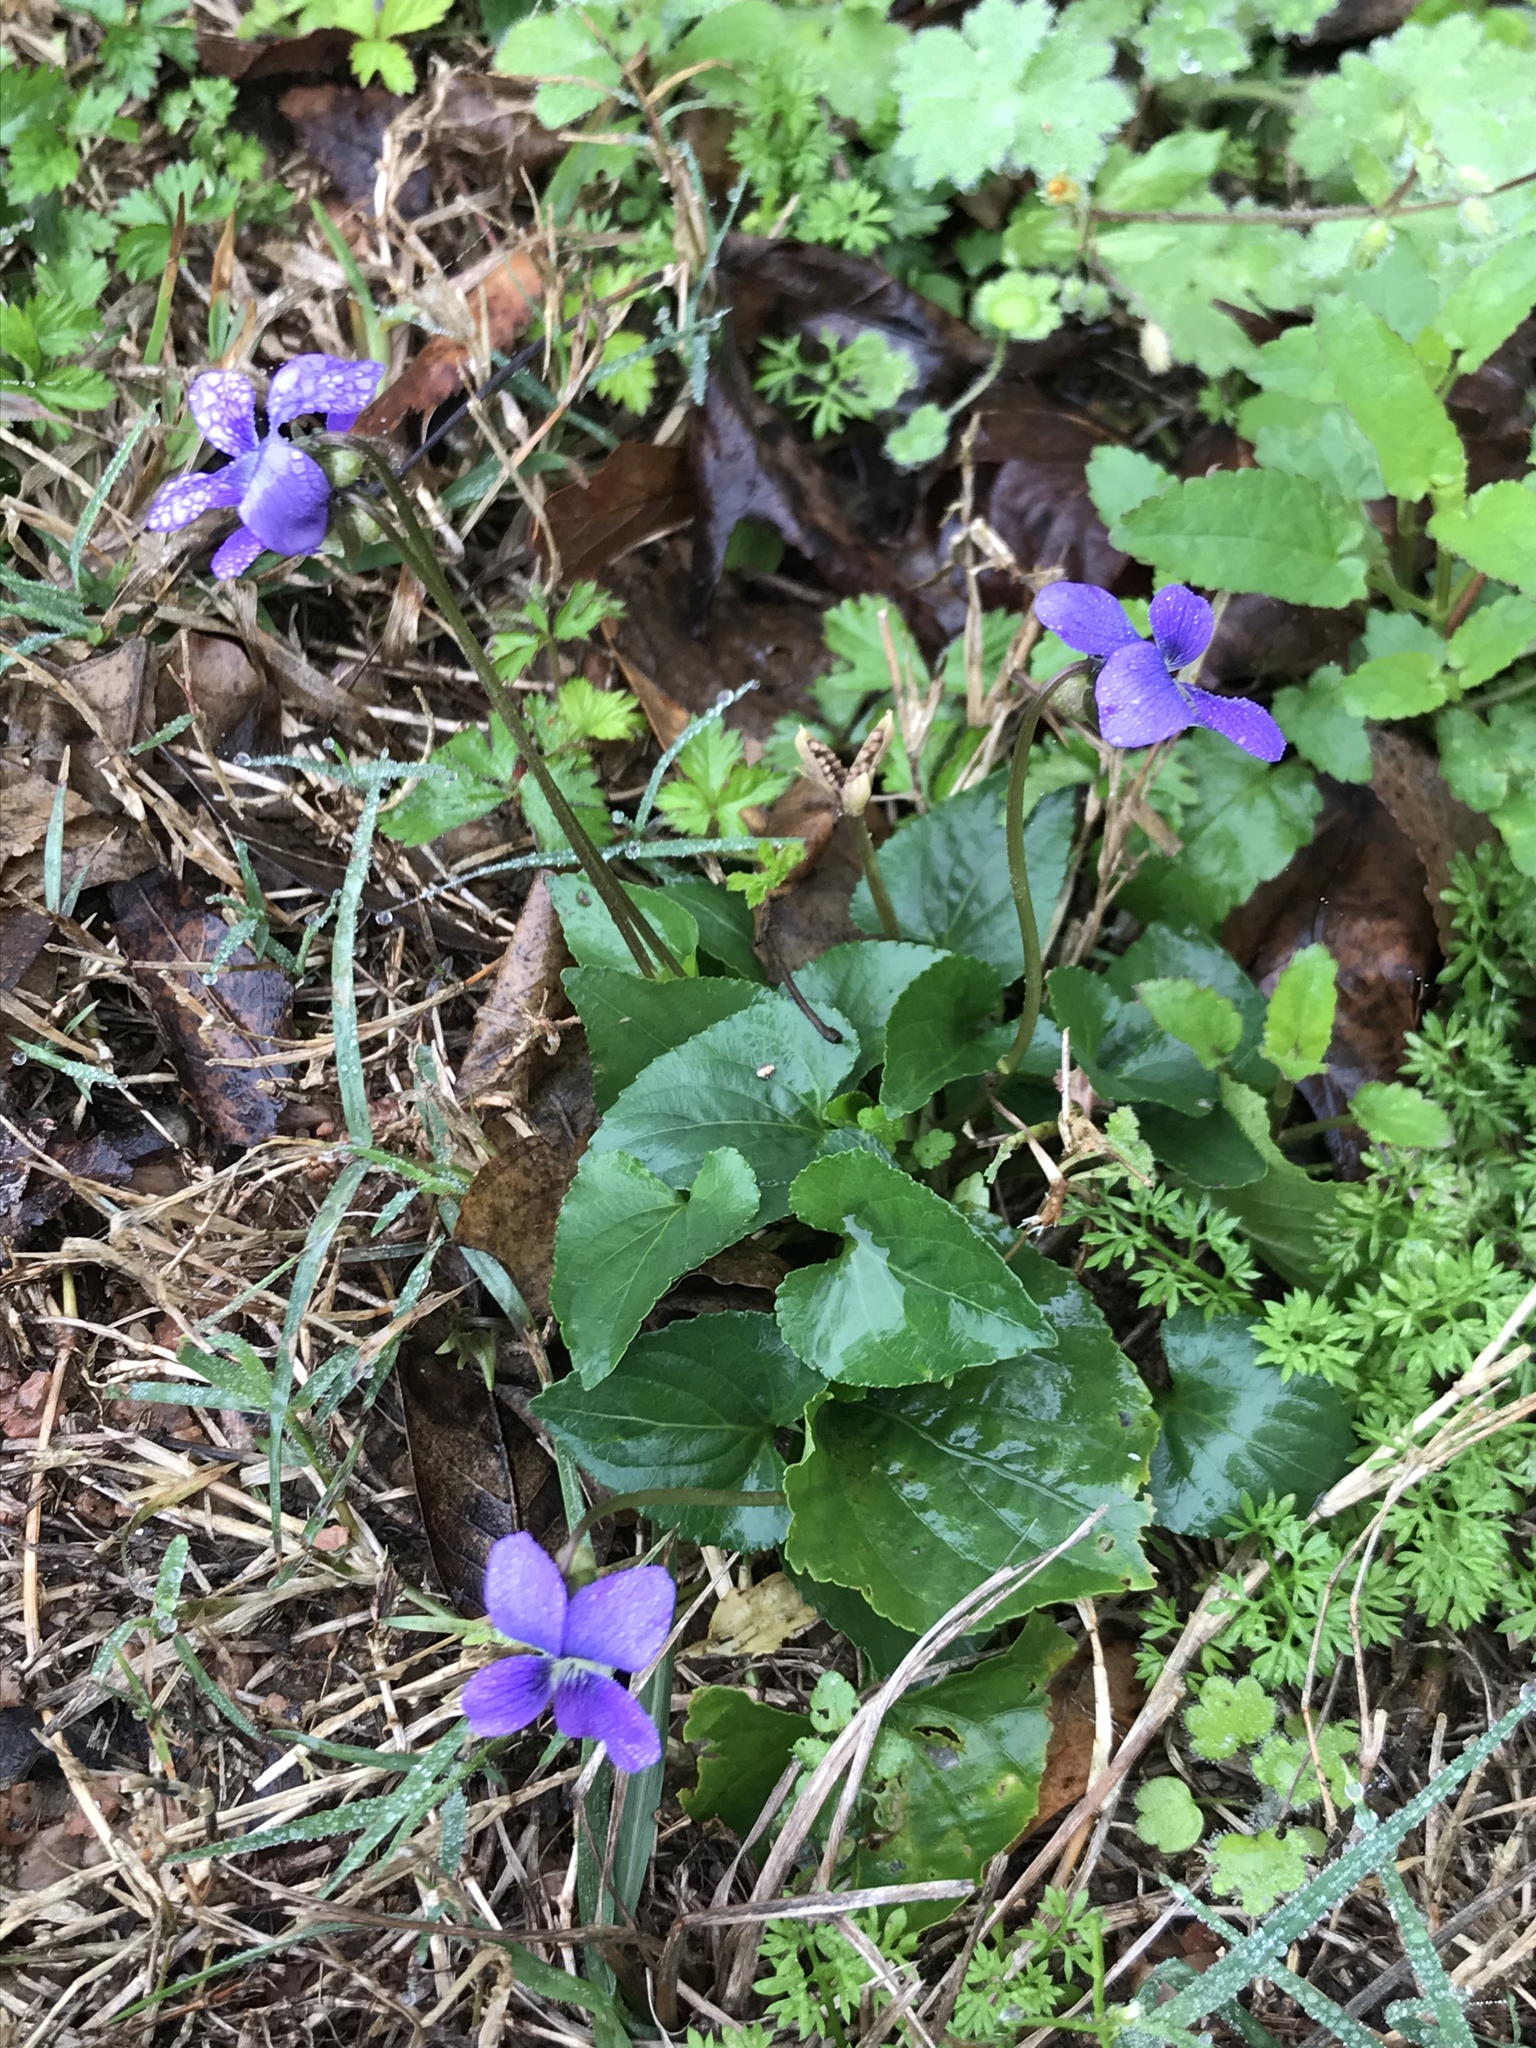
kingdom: Plantae
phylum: Tracheophyta
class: Magnoliopsida
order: Malpighiales
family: Violaceae
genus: Viola
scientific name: Viola sororia
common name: Dooryard violet
